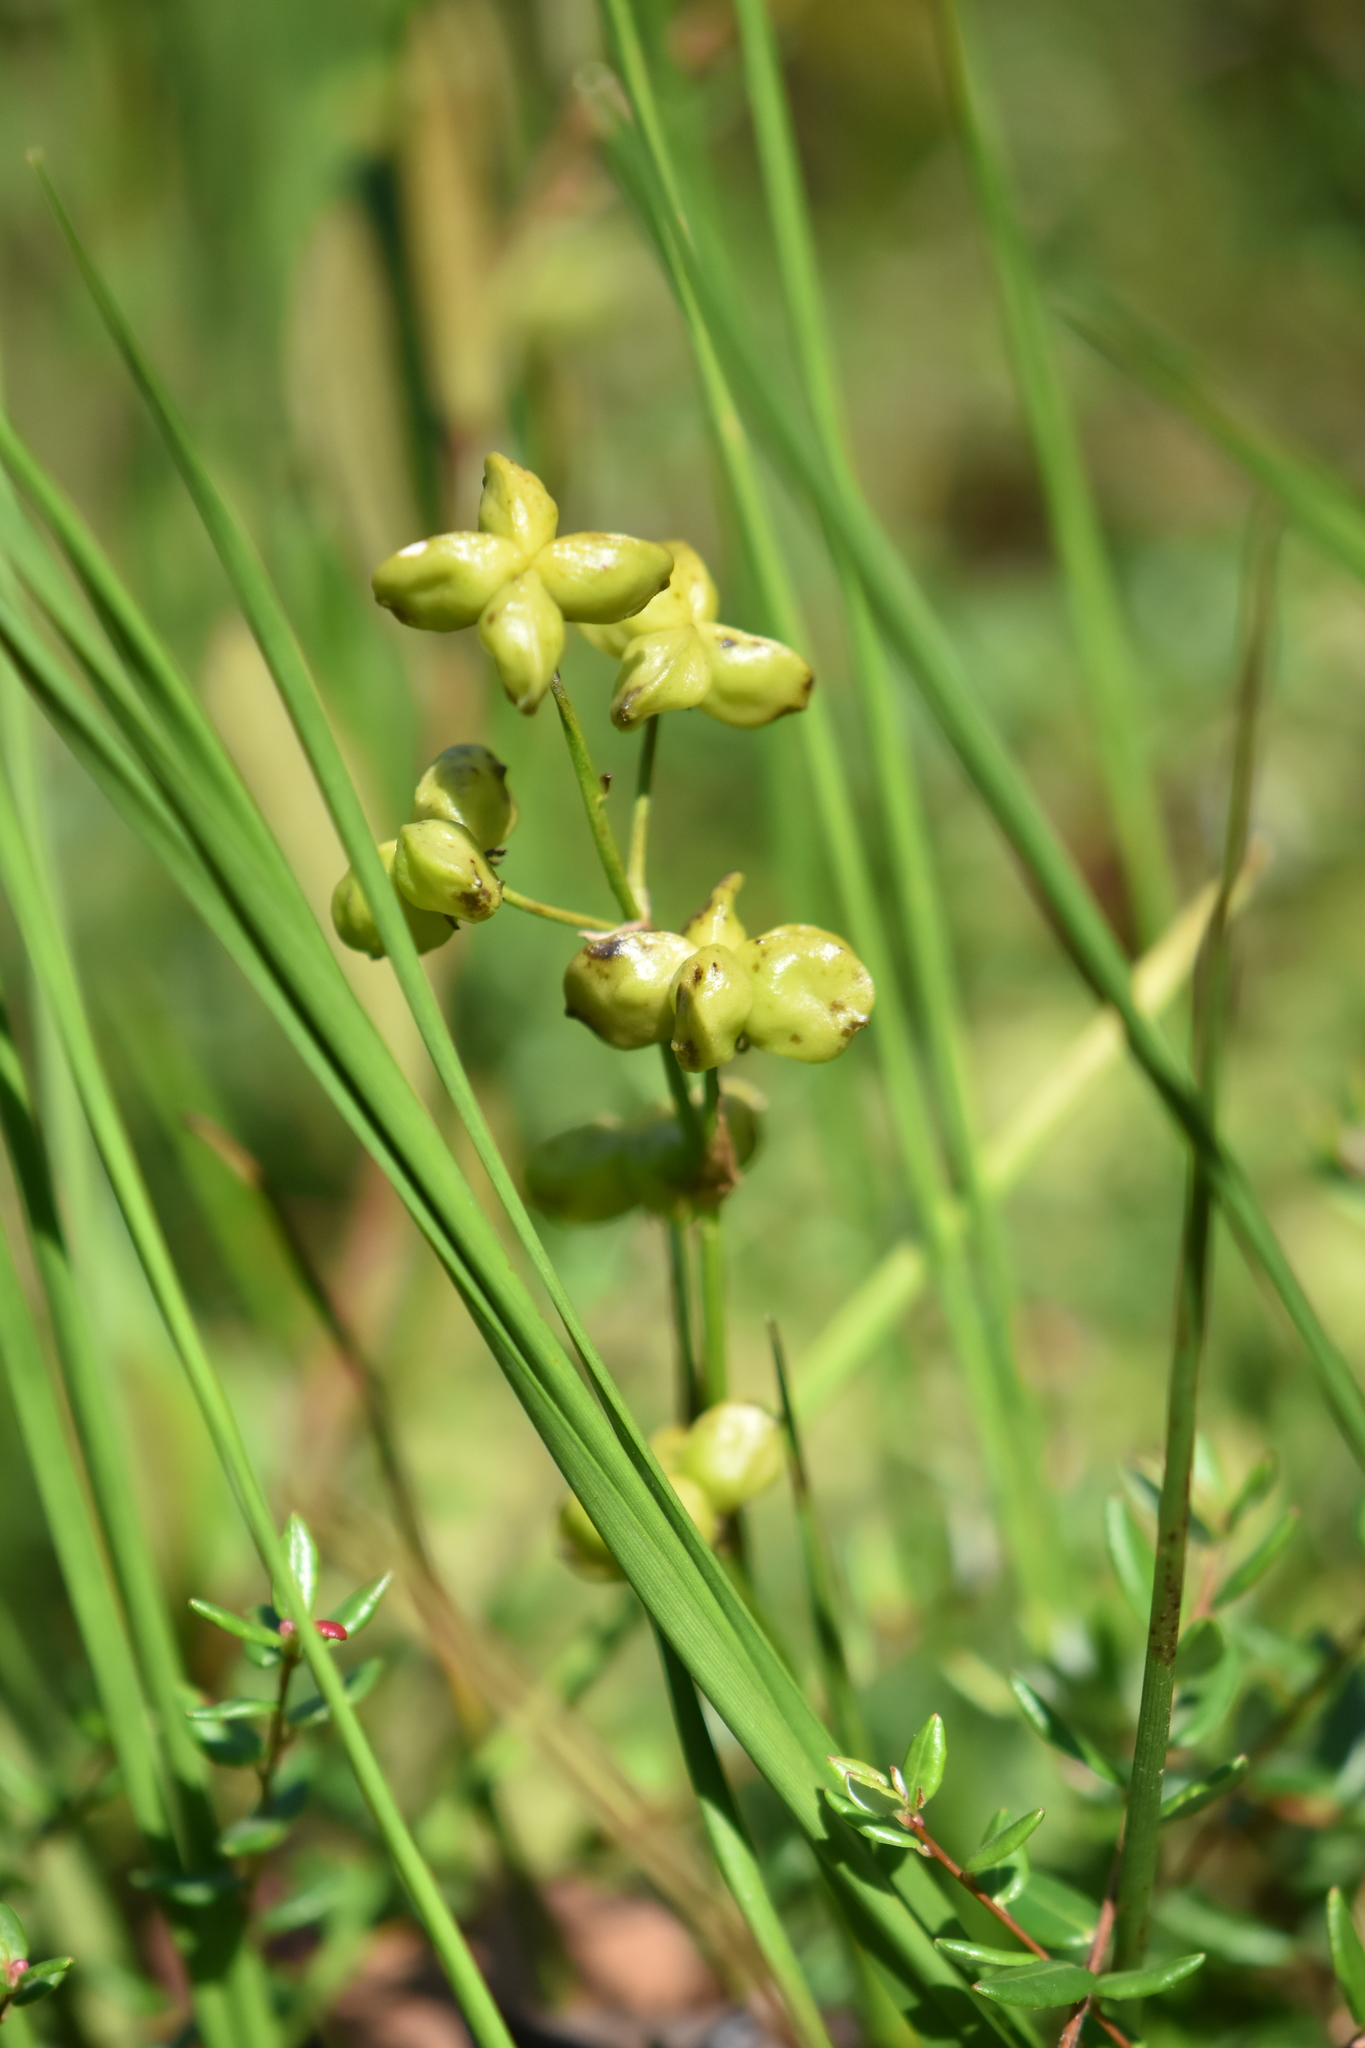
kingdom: Plantae
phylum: Tracheophyta
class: Liliopsida
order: Alismatales
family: Scheuchzeriaceae
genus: Scheuchzeria
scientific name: Scheuchzeria palustris
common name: Rannoch-rush
